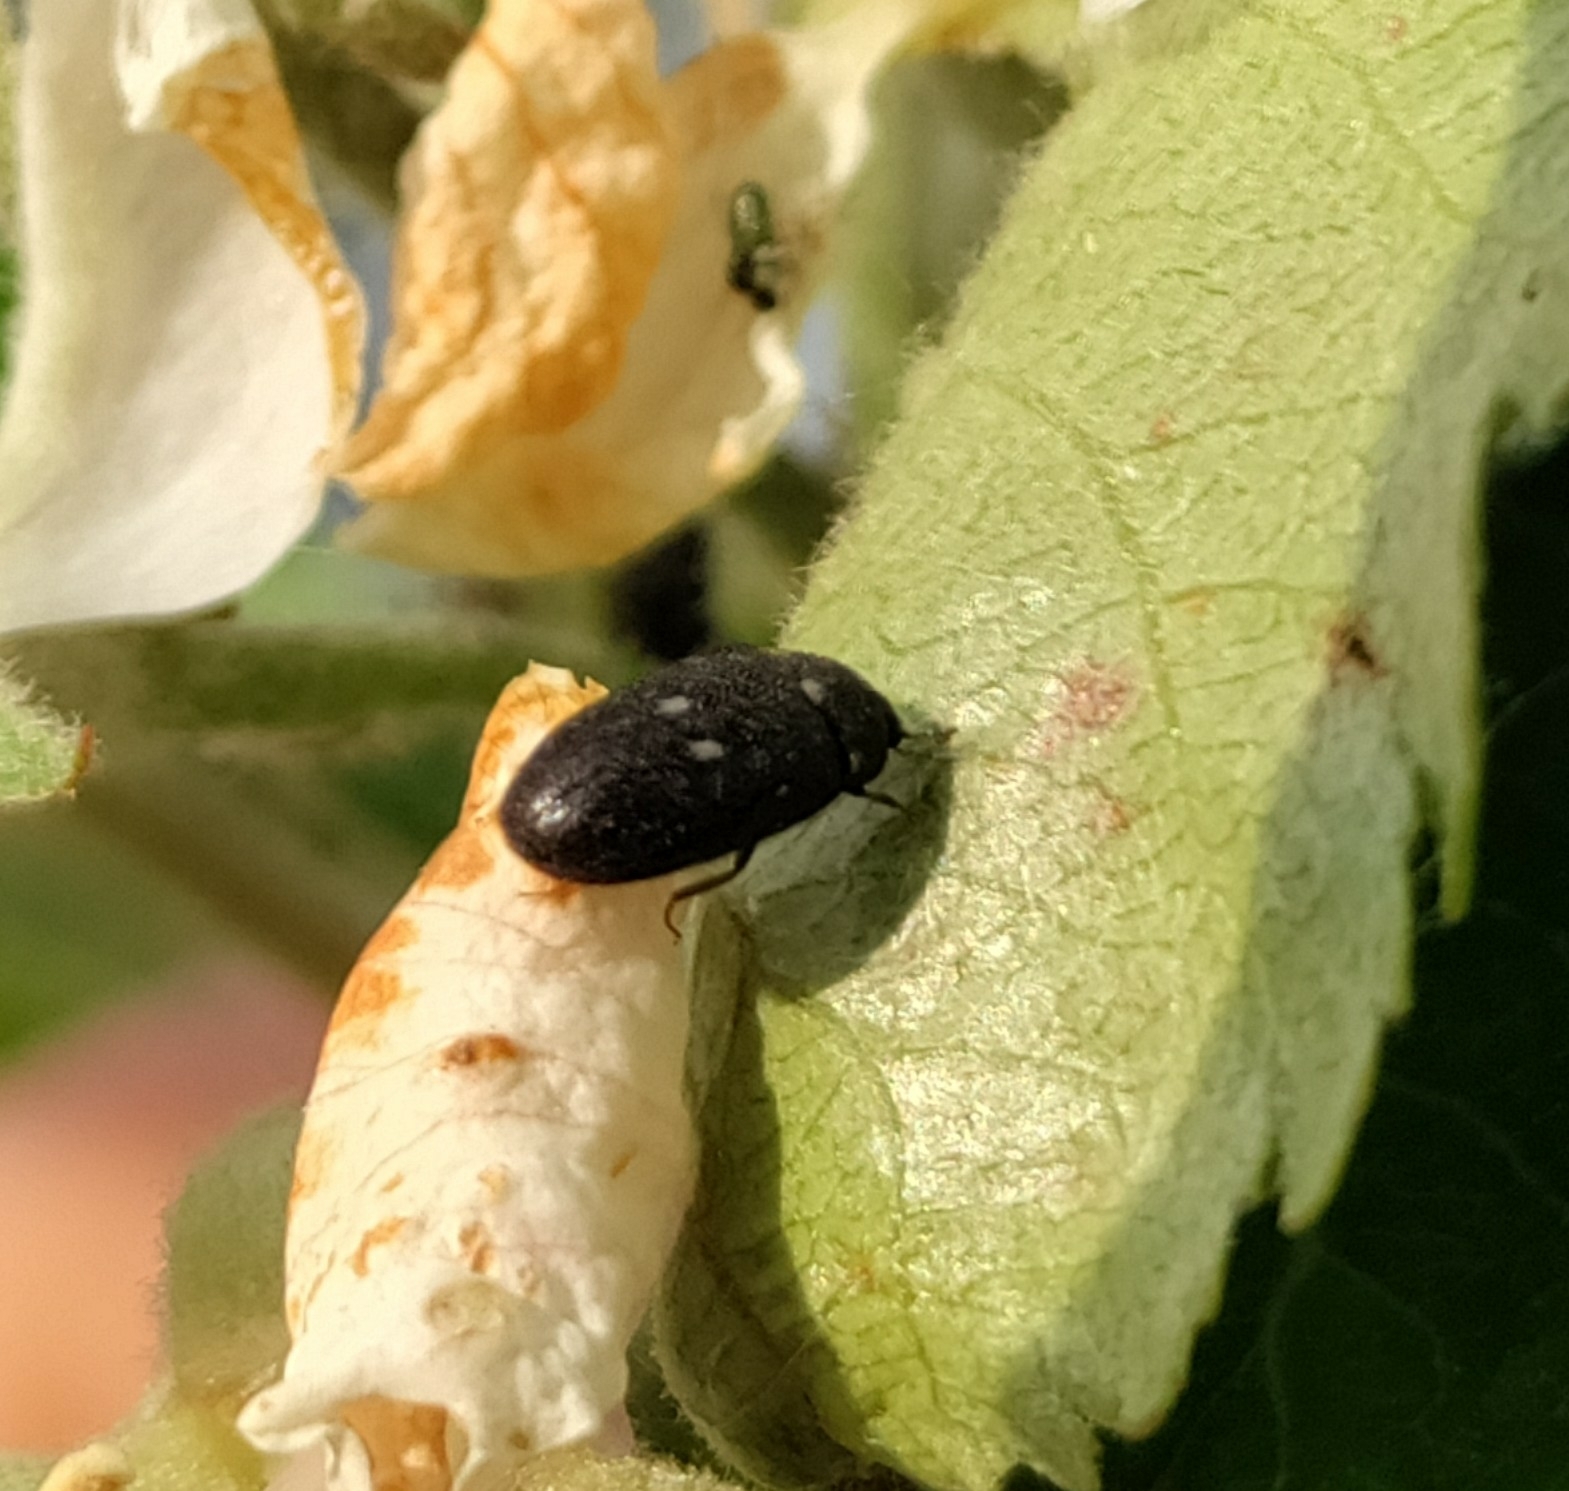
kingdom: Animalia
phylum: Arthropoda
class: Insecta
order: Coleoptera
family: Dermestidae
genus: Attagenus
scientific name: Attagenus pellio
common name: Two-spotted carpet beetle
